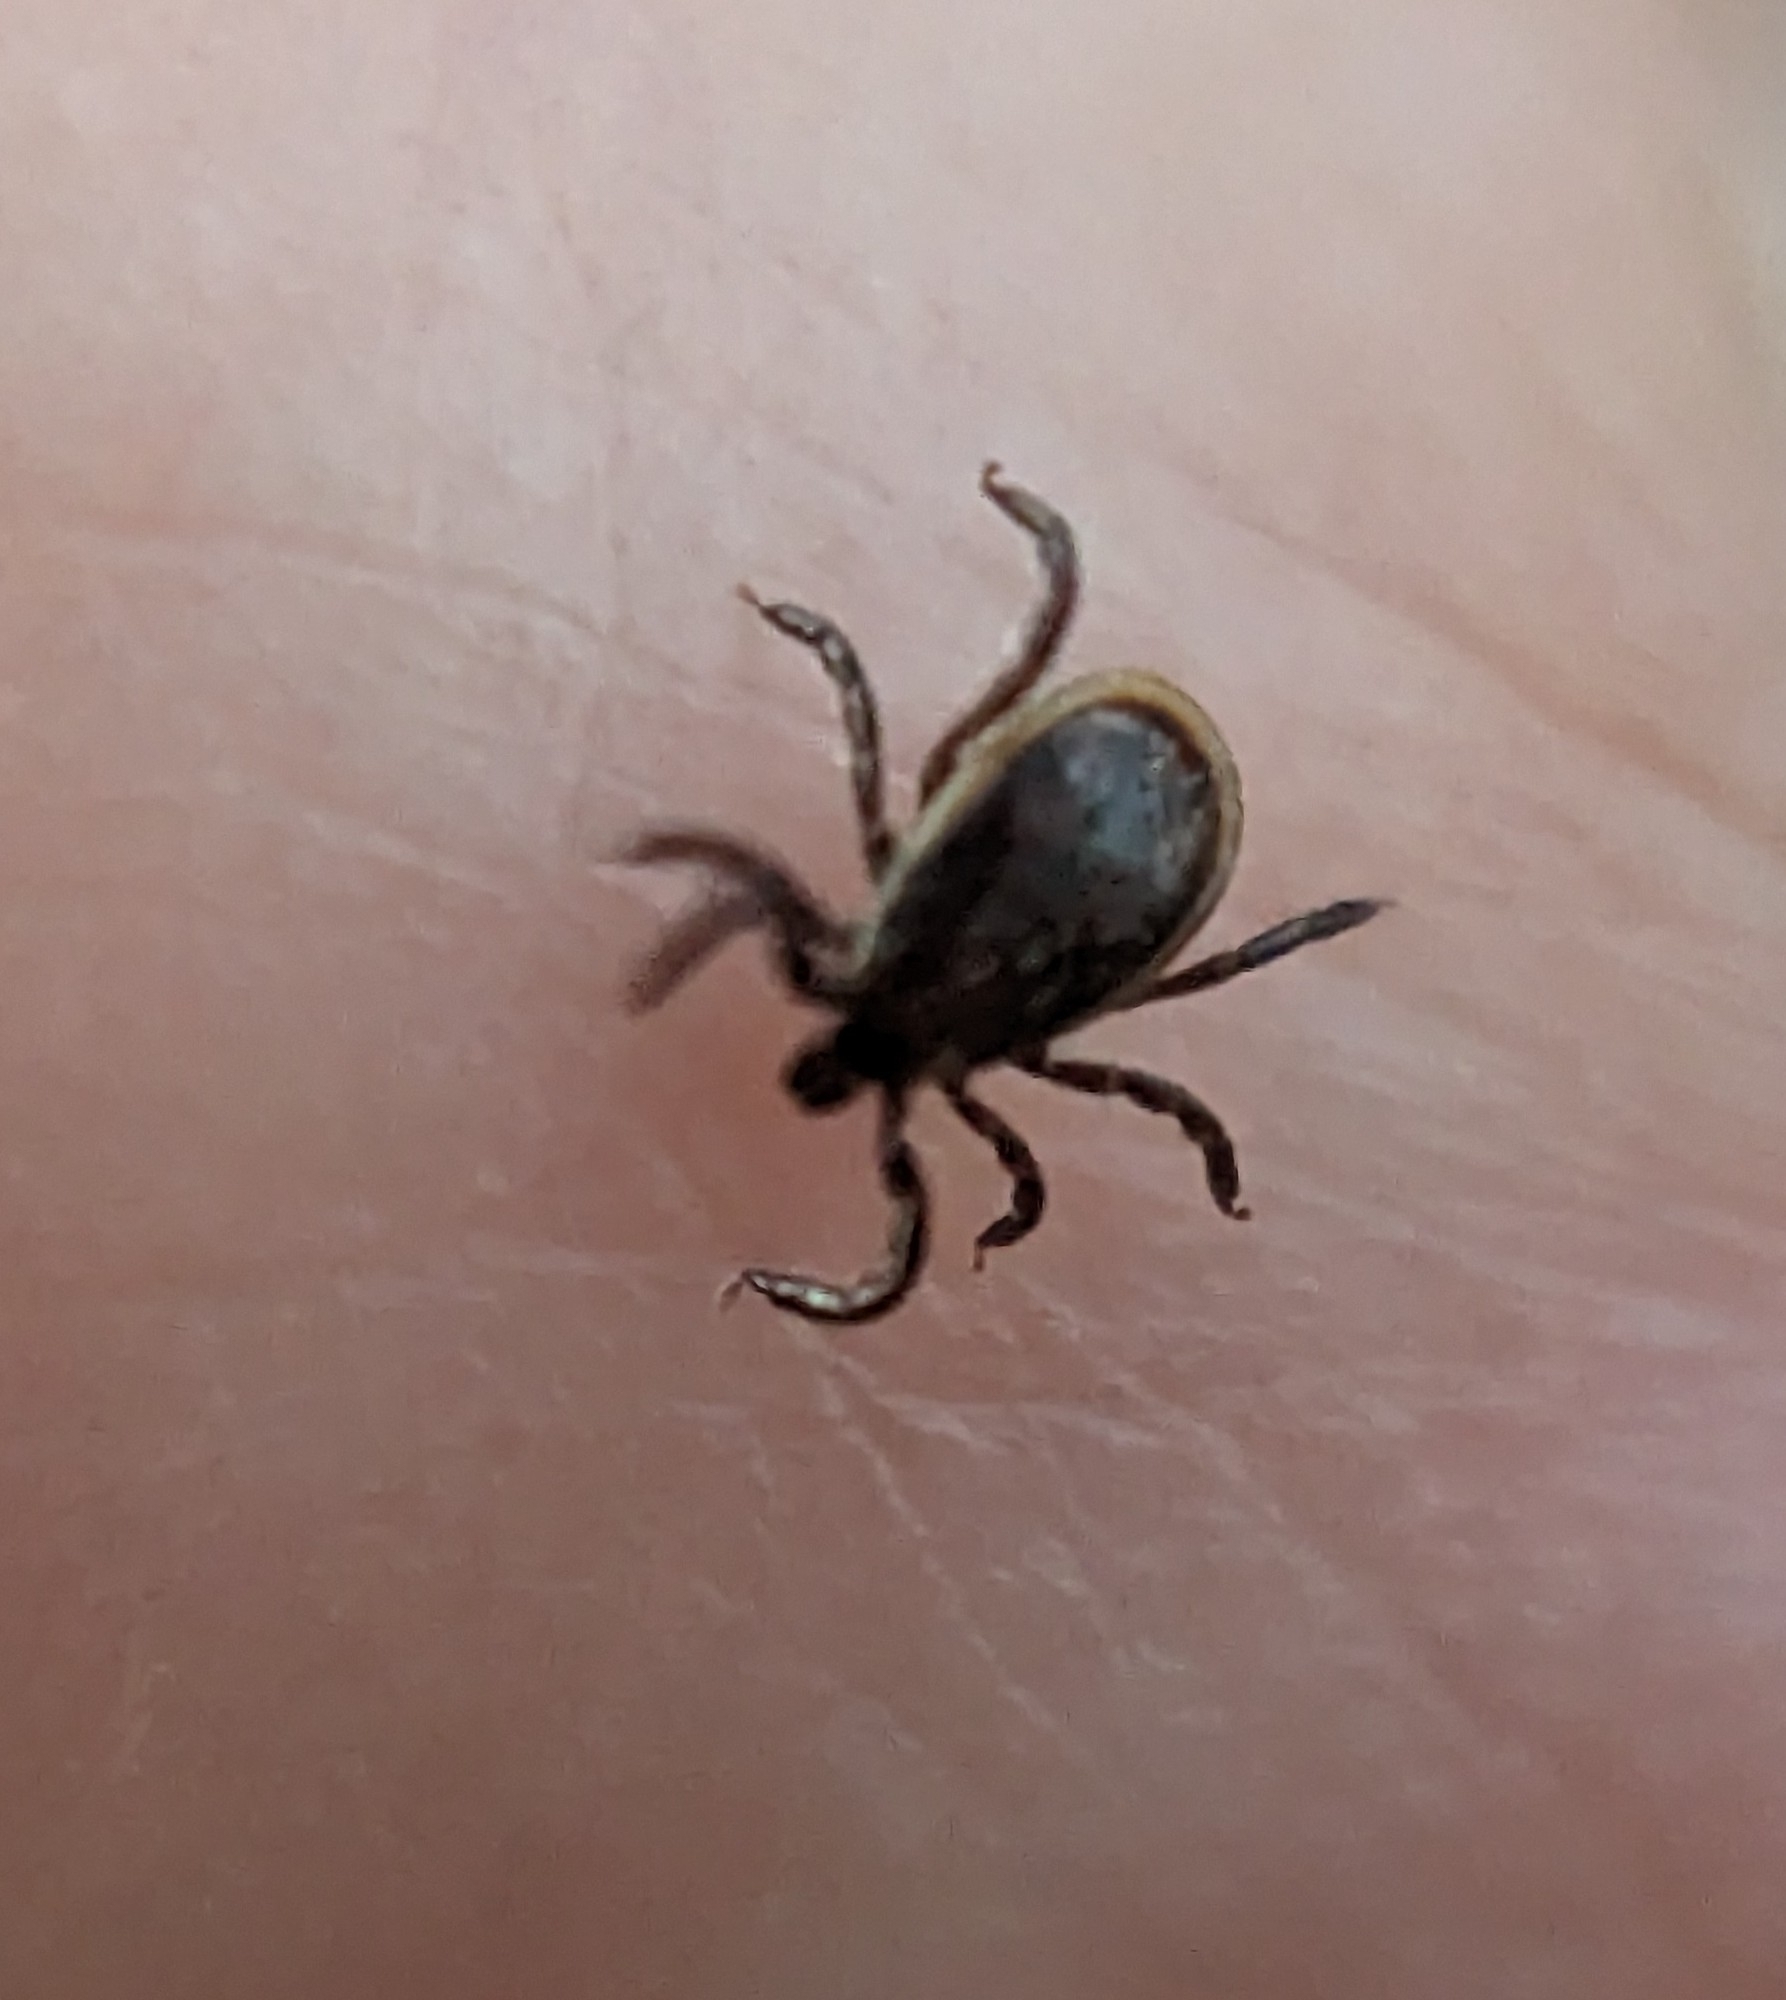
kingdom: Animalia
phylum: Arthropoda
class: Arachnida
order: Ixodida
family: Ixodidae
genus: Ixodes
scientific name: Ixodes scapularis
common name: Black legged tick
